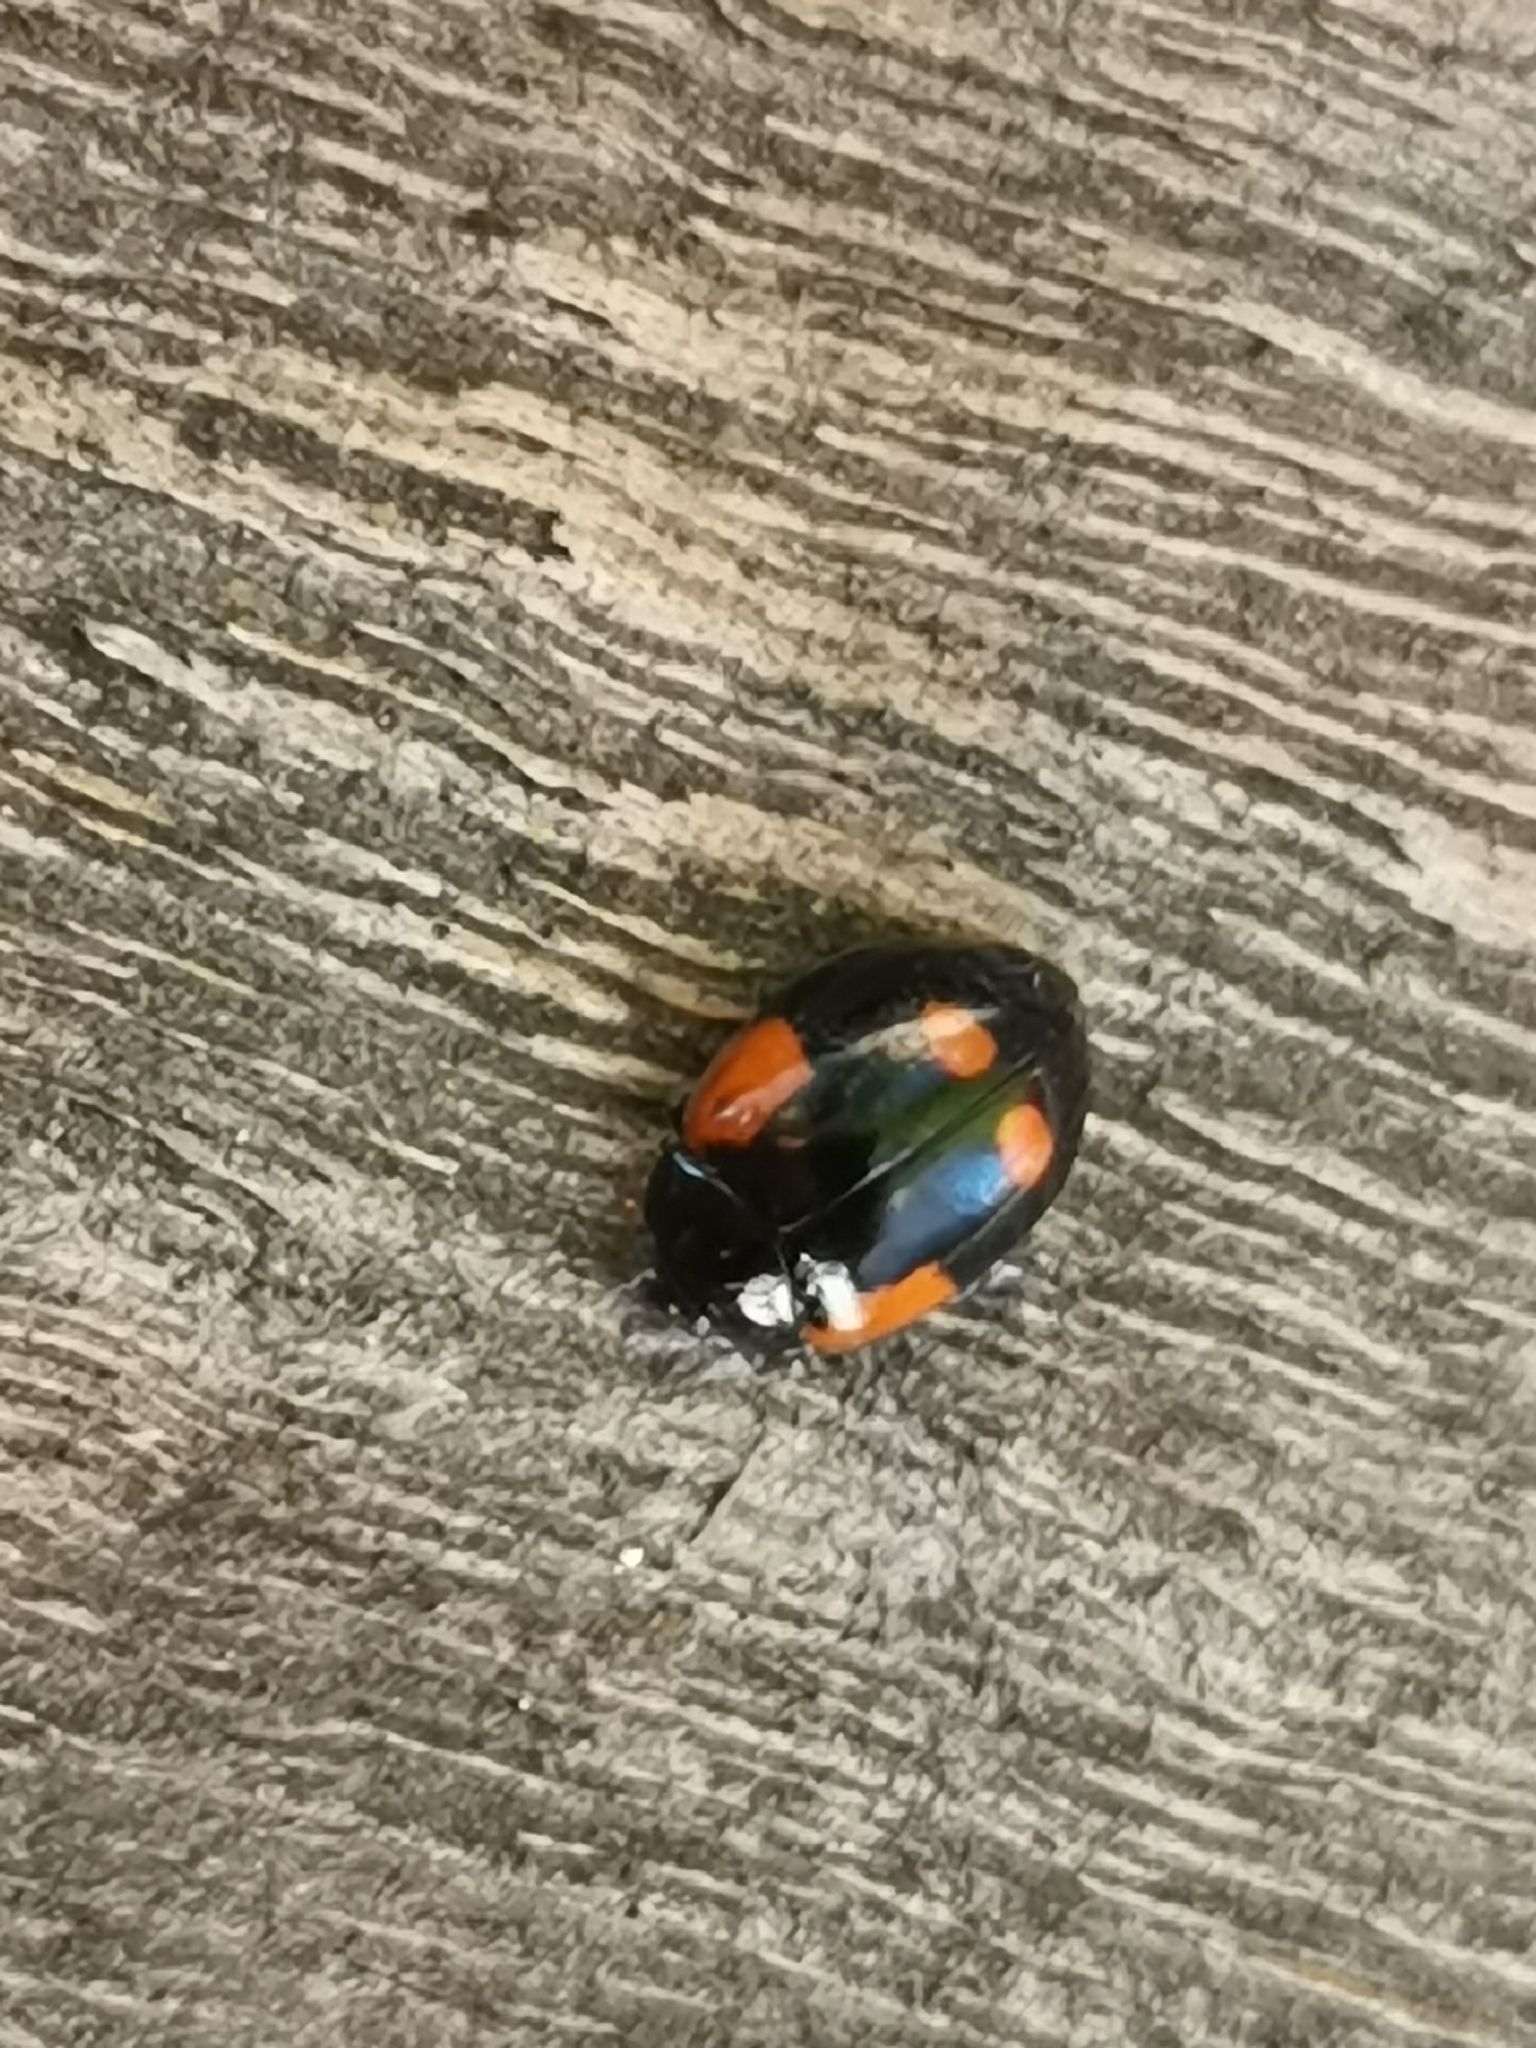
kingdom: Animalia
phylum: Arthropoda
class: Insecta
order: Coleoptera
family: Coccinellidae
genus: Adalia
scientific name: Adalia bipunctata
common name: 2-spot ladybird
